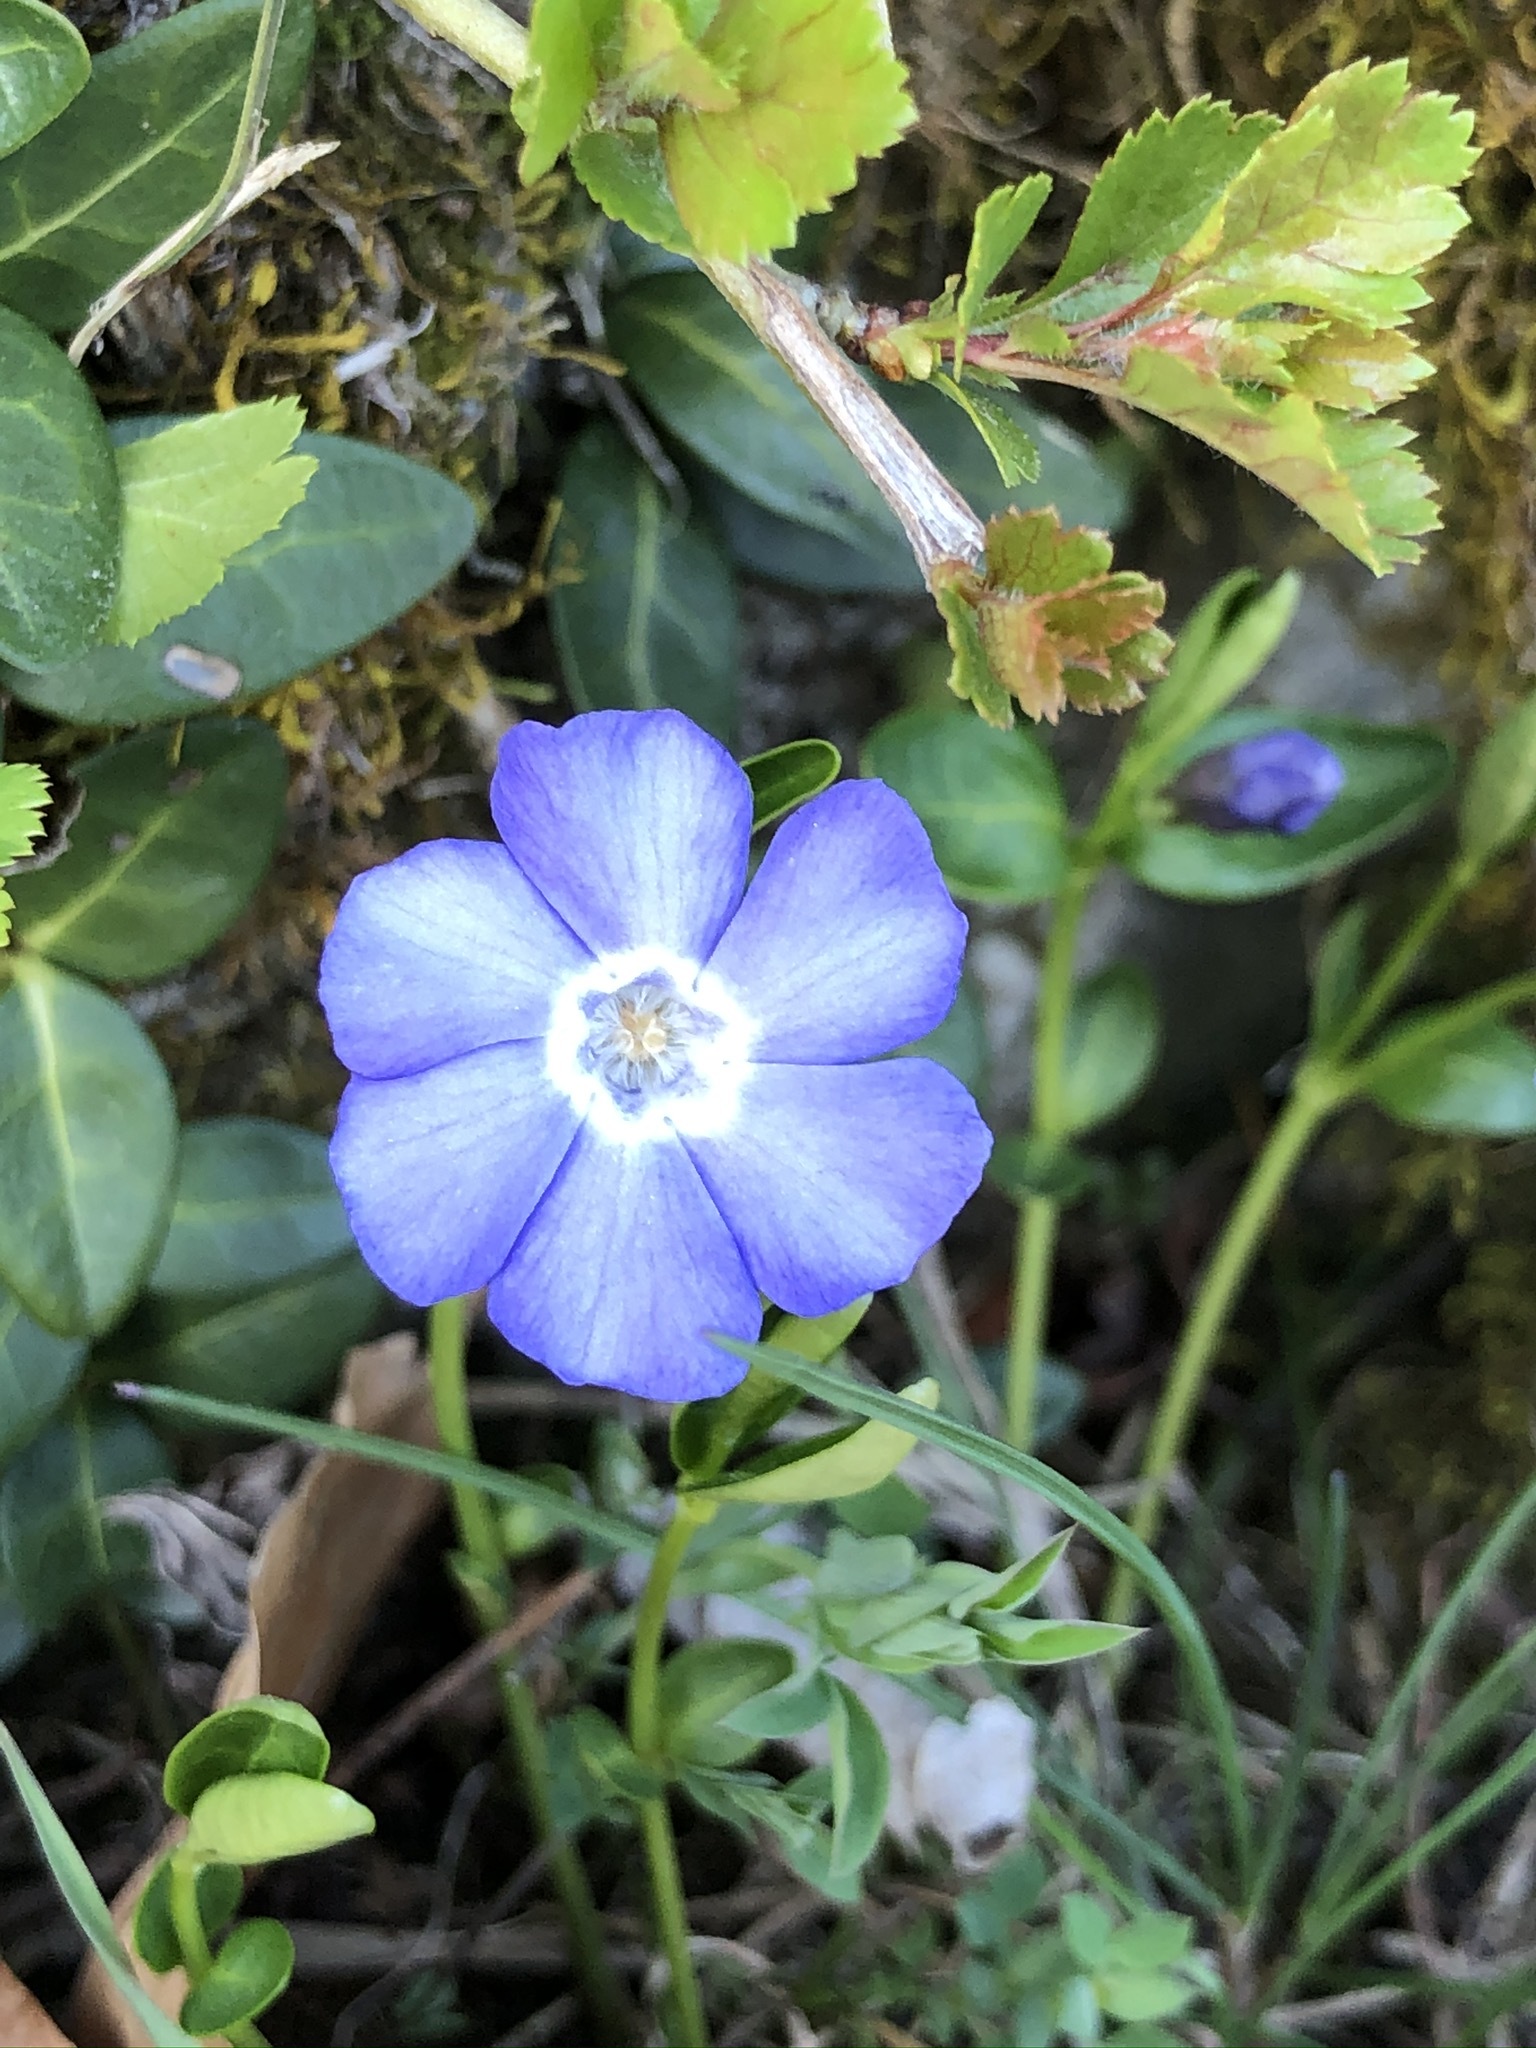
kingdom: Plantae
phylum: Tracheophyta
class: Magnoliopsida
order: Gentianales
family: Apocynaceae
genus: Vinca
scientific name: Vinca minor
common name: Lesser periwinkle
